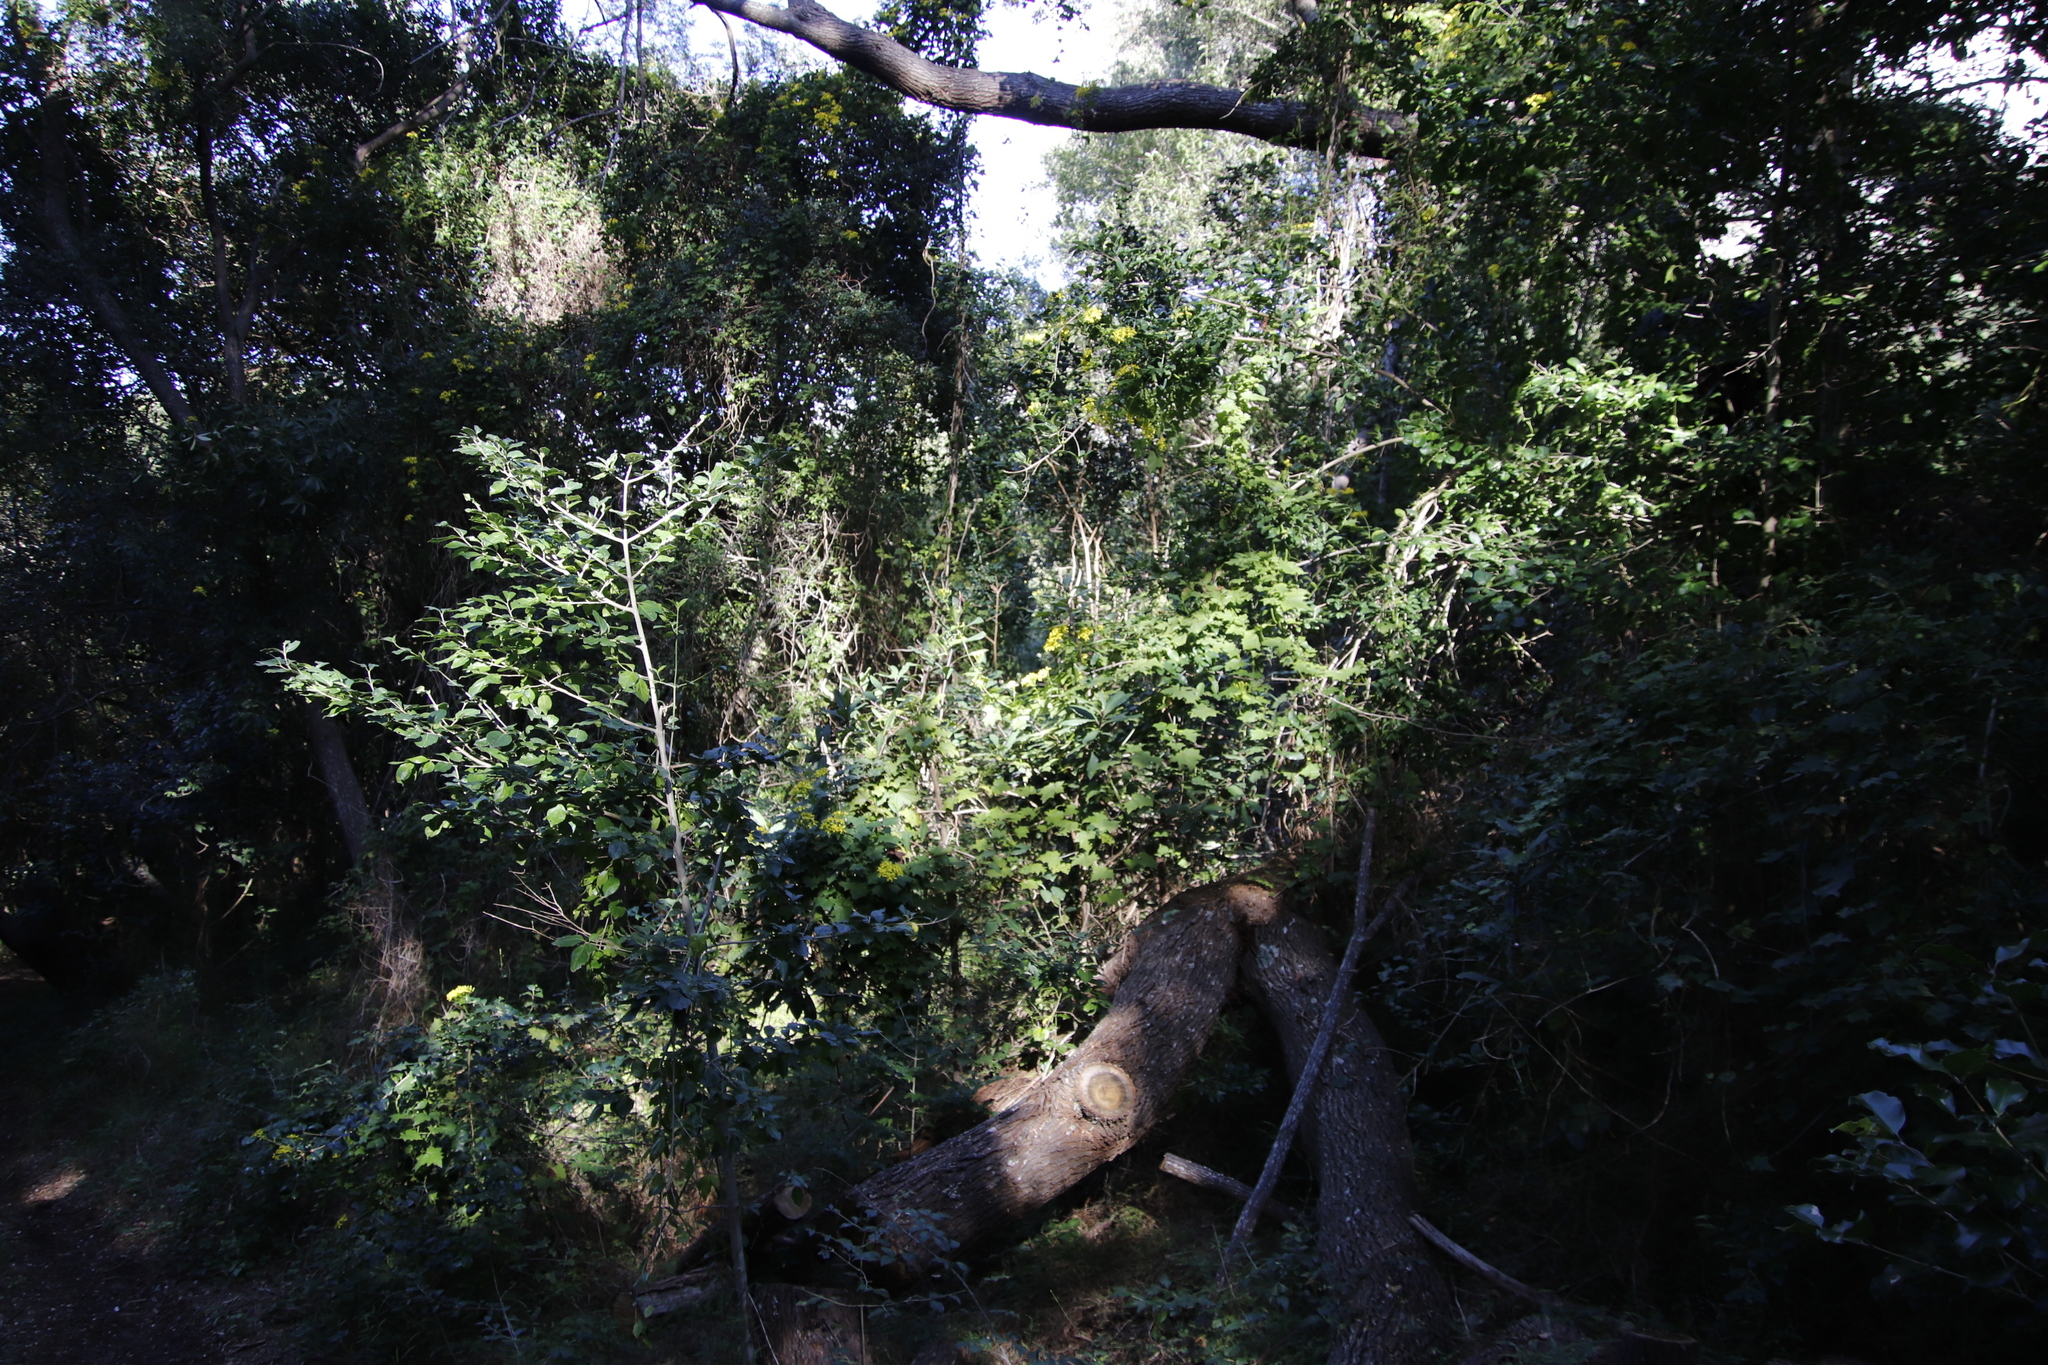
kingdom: Plantae
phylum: Tracheophyta
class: Magnoliopsida
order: Asterales
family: Asteraceae
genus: Senecio
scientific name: Senecio tamoides
